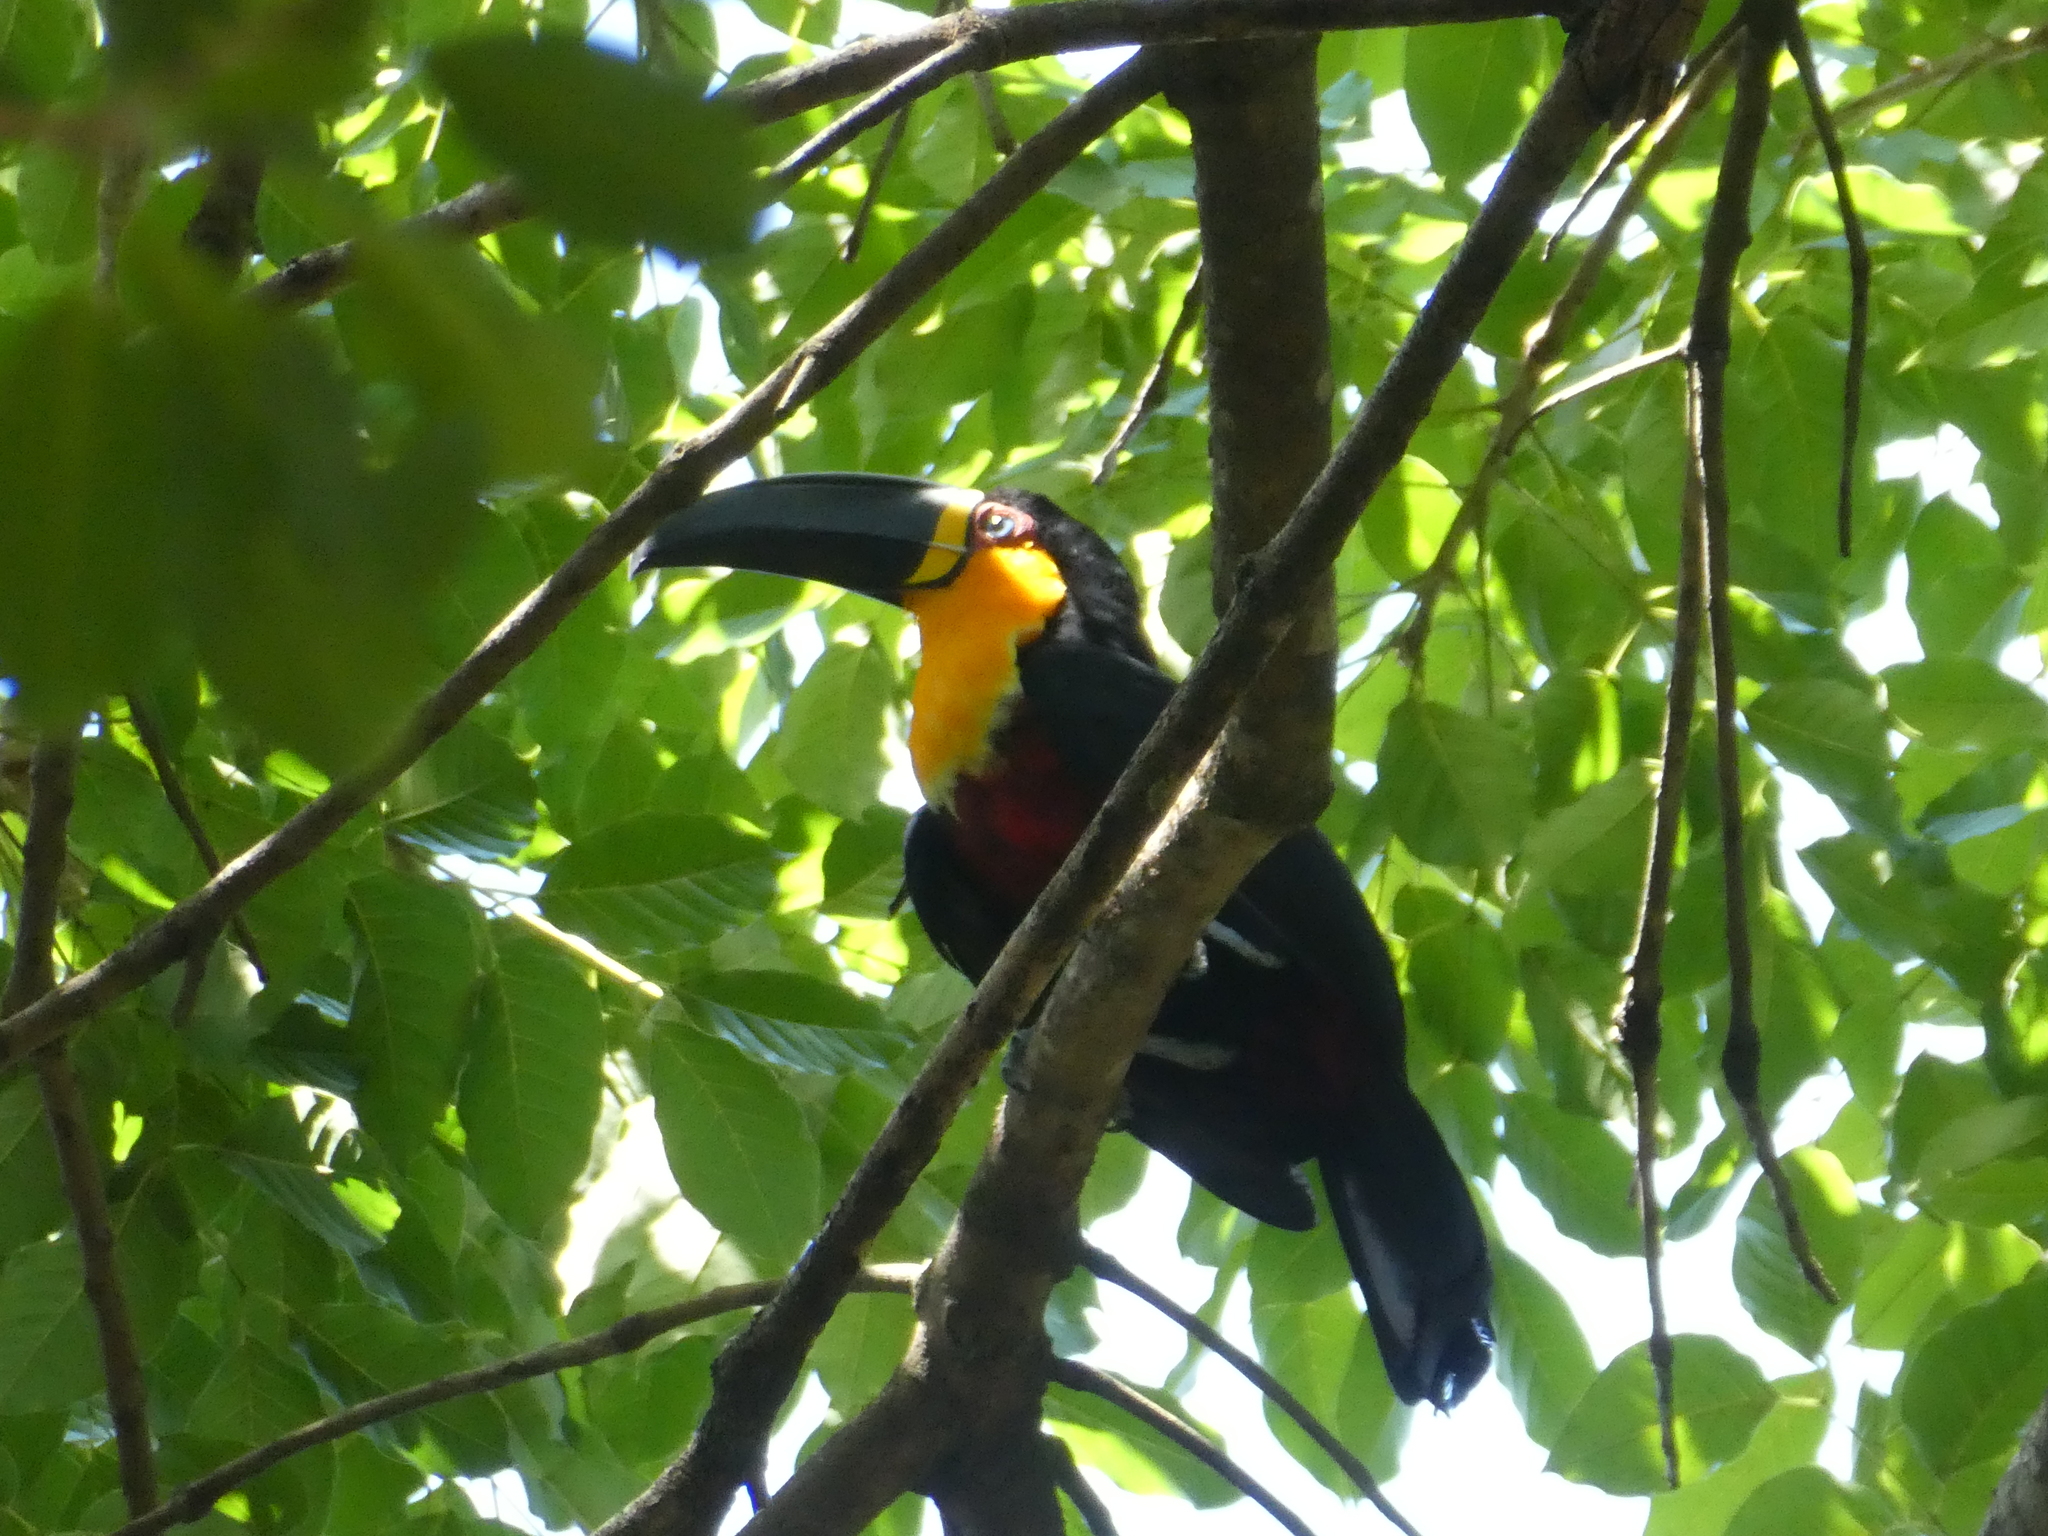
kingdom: Animalia
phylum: Chordata
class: Aves
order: Piciformes
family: Ramphastidae
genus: Ramphastos
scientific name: Ramphastos vitellinus
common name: Channel-billed toucan
